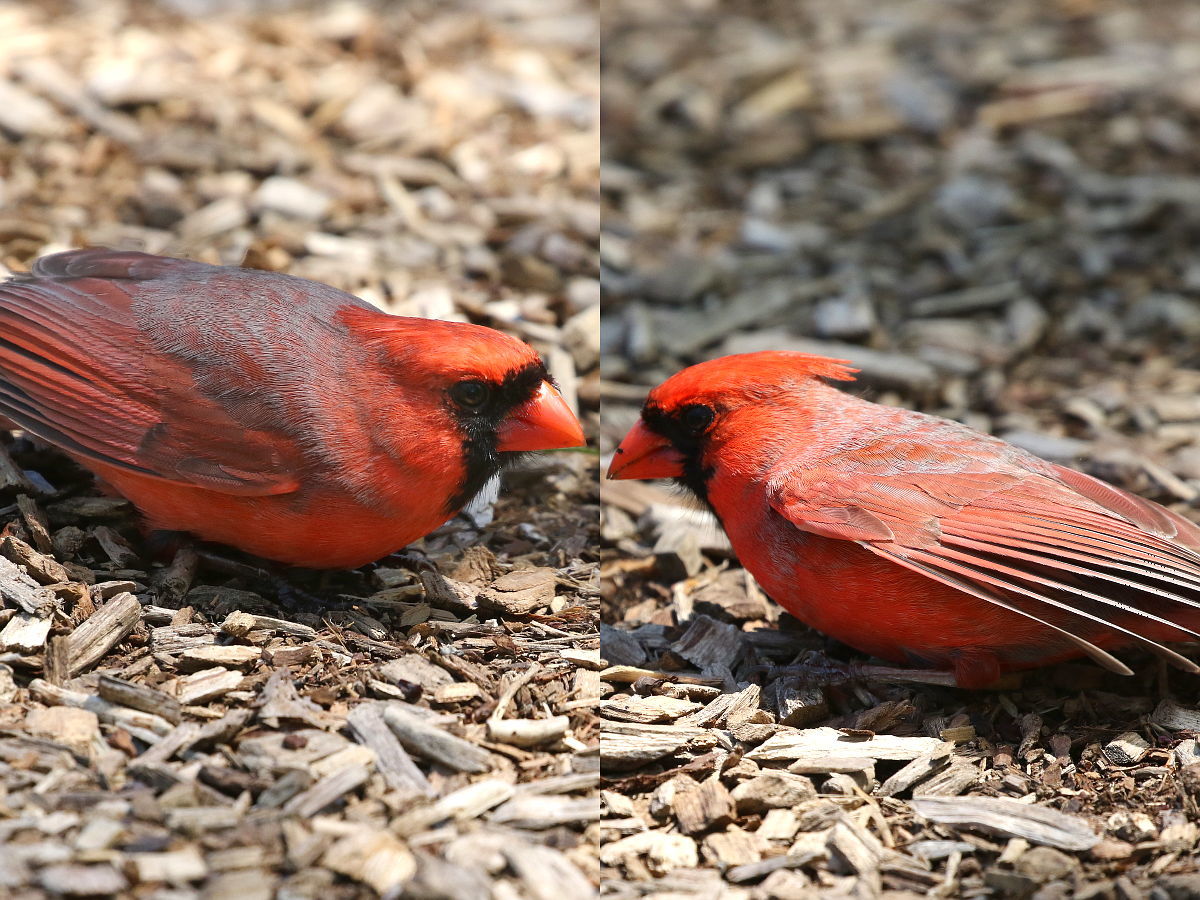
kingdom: Animalia
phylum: Chordata
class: Aves
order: Passeriformes
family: Cardinalidae
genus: Cardinalis
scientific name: Cardinalis cardinalis
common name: Northern cardinal
